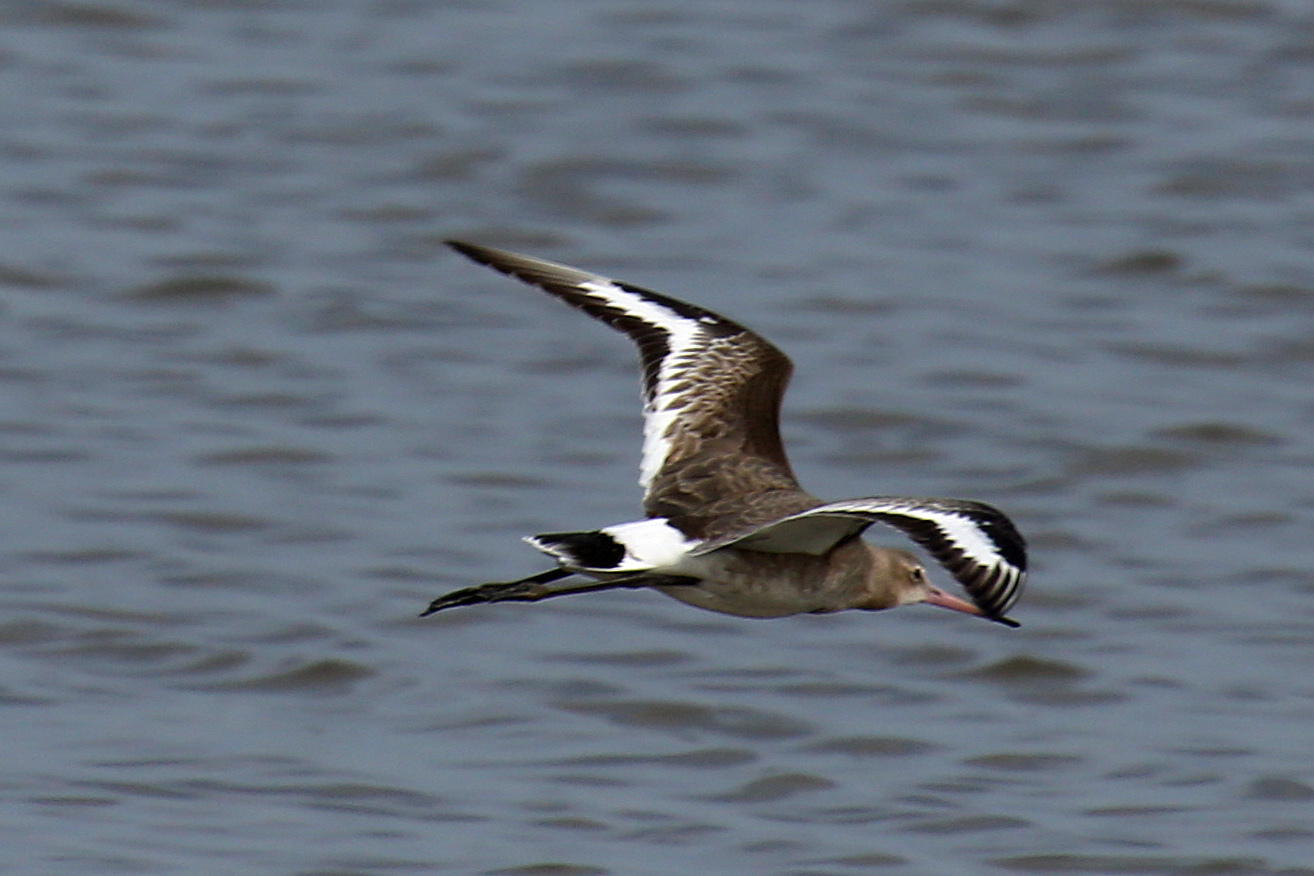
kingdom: Animalia
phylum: Chordata
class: Aves
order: Charadriiformes
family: Scolopacidae
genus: Limosa
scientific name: Limosa limosa
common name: Black-tailed godwit
